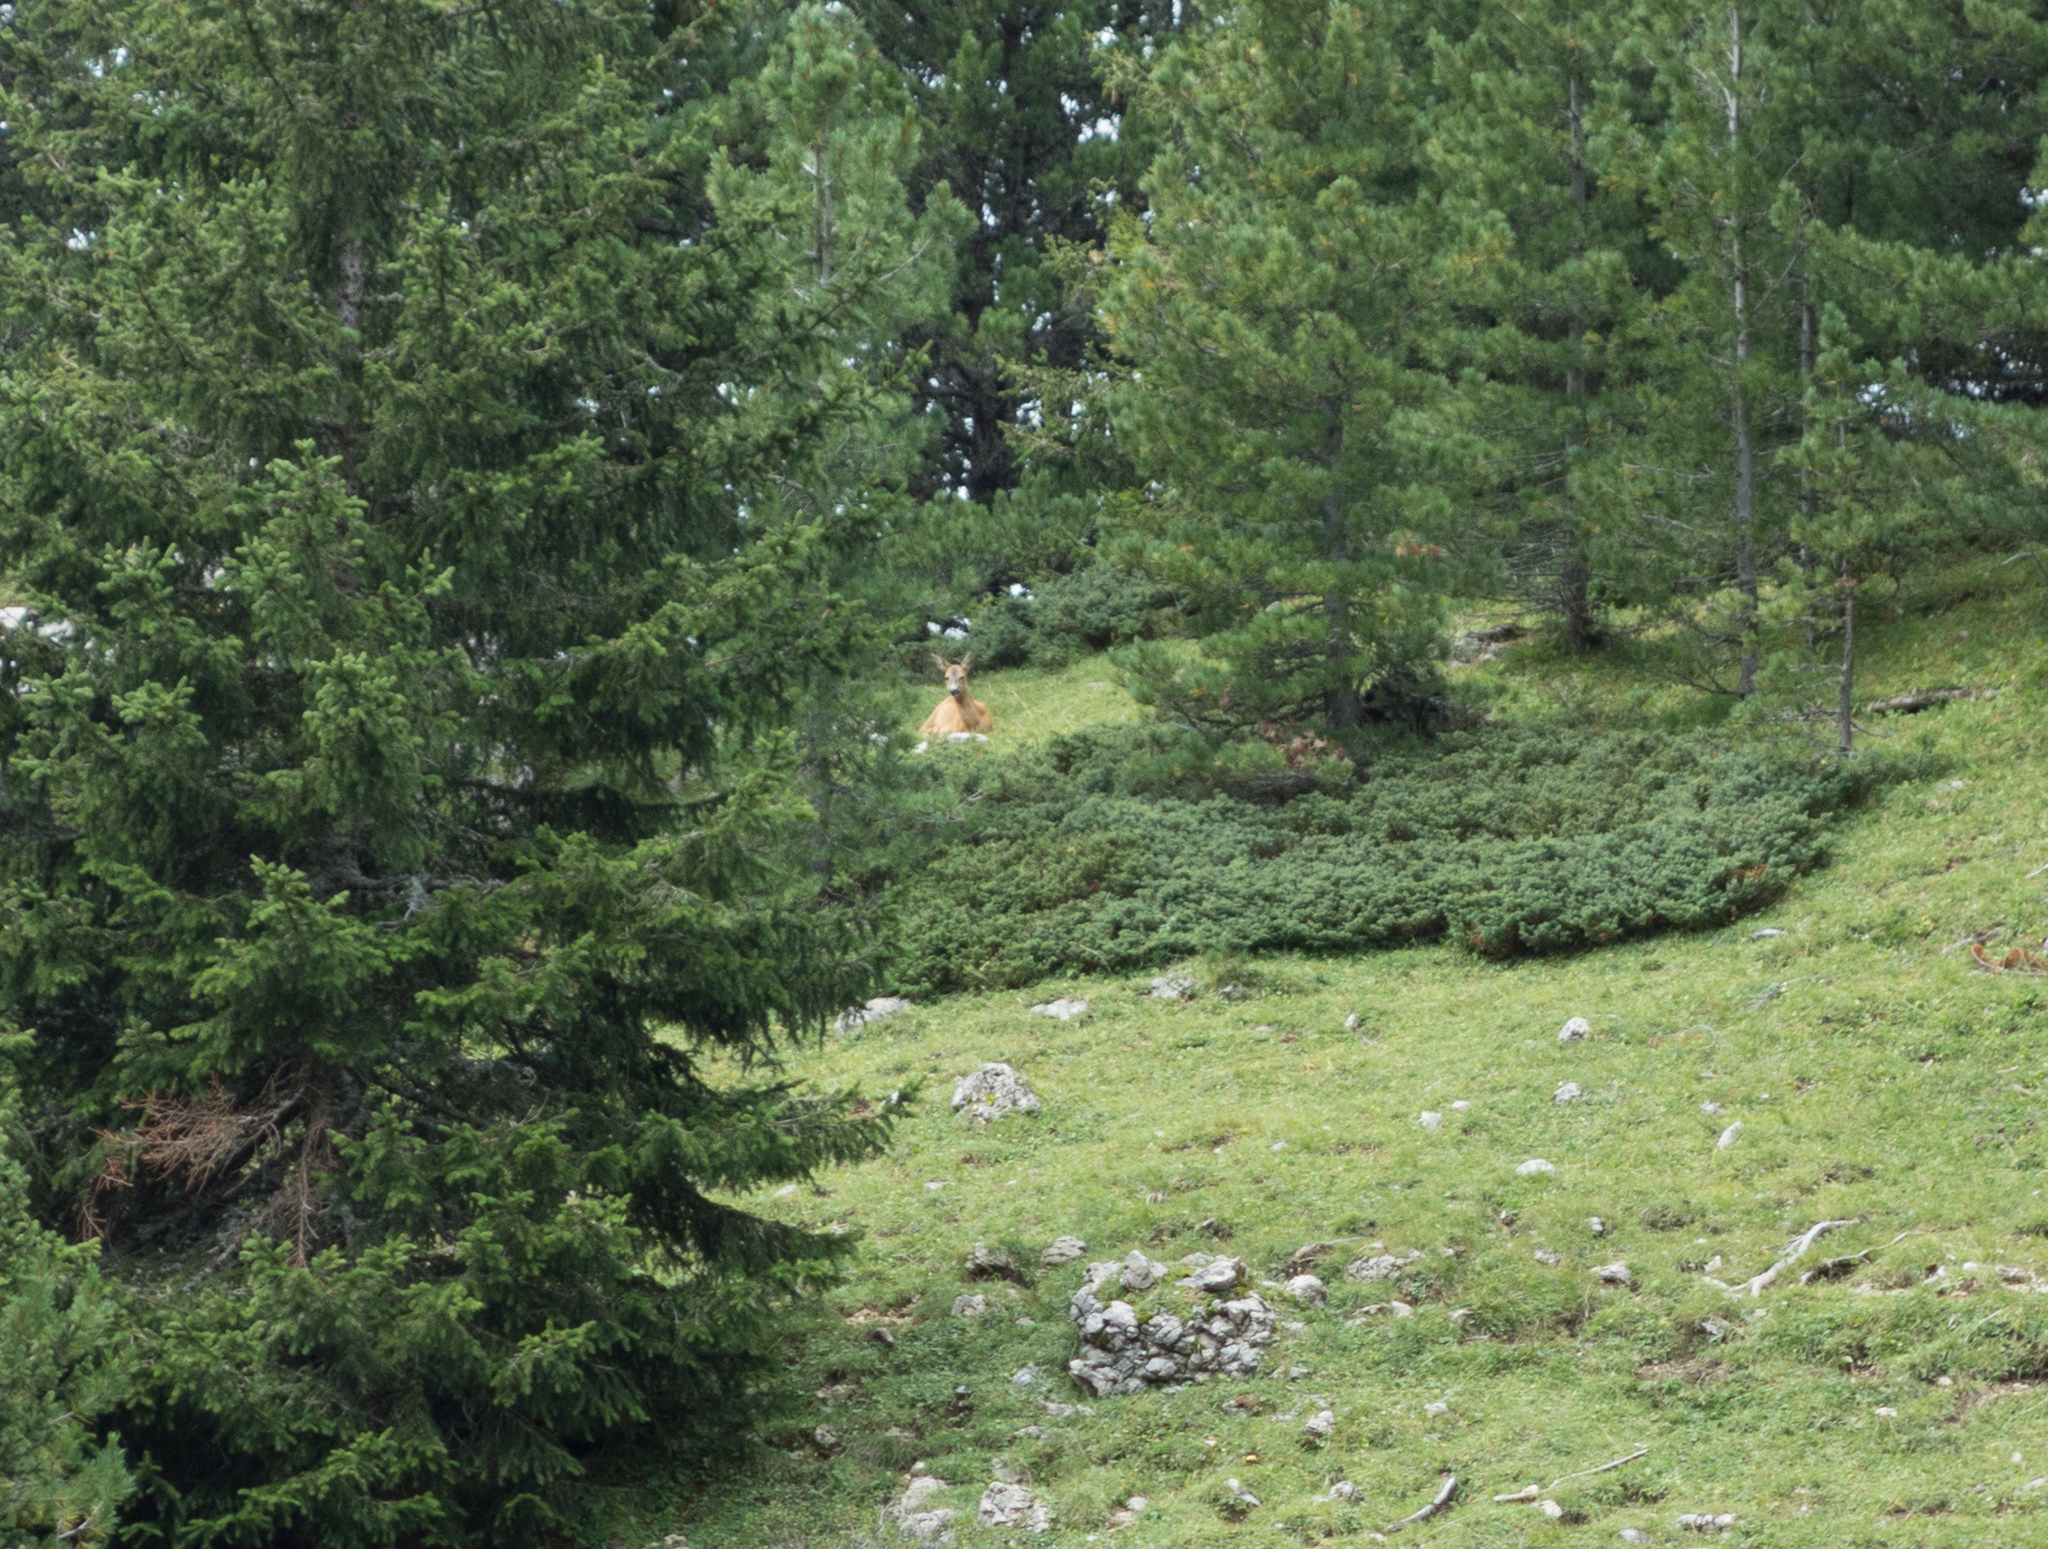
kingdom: Animalia
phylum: Chordata
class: Mammalia
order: Artiodactyla
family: Cervidae
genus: Capreolus
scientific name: Capreolus capreolus
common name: Western roe deer
